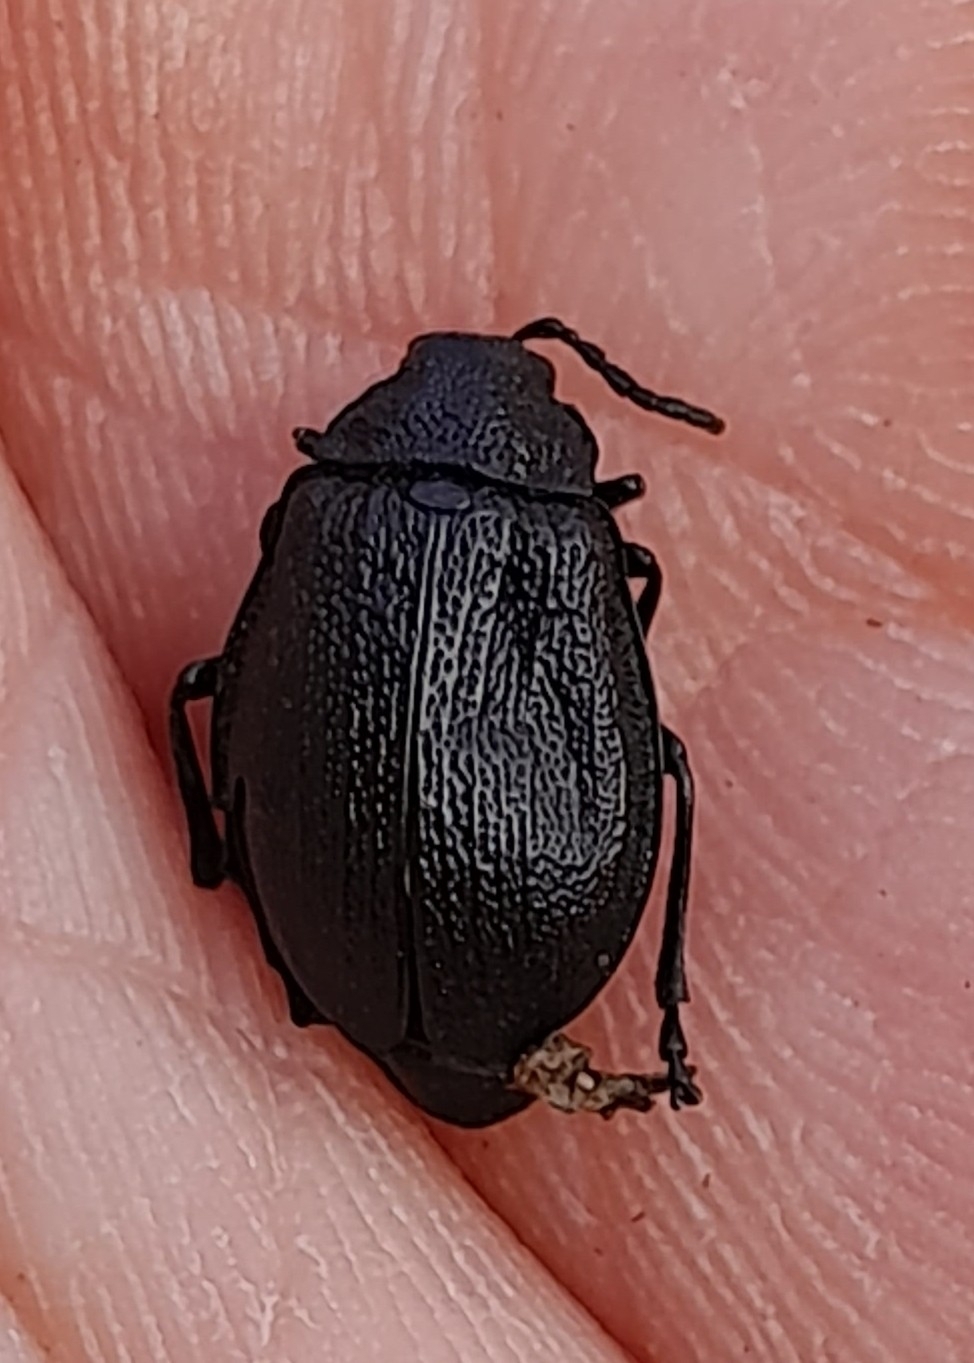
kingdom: Animalia
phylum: Arthropoda
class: Insecta
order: Coleoptera
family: Chrysomelidae
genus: Galeruca
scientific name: Galeruca tanaceti
